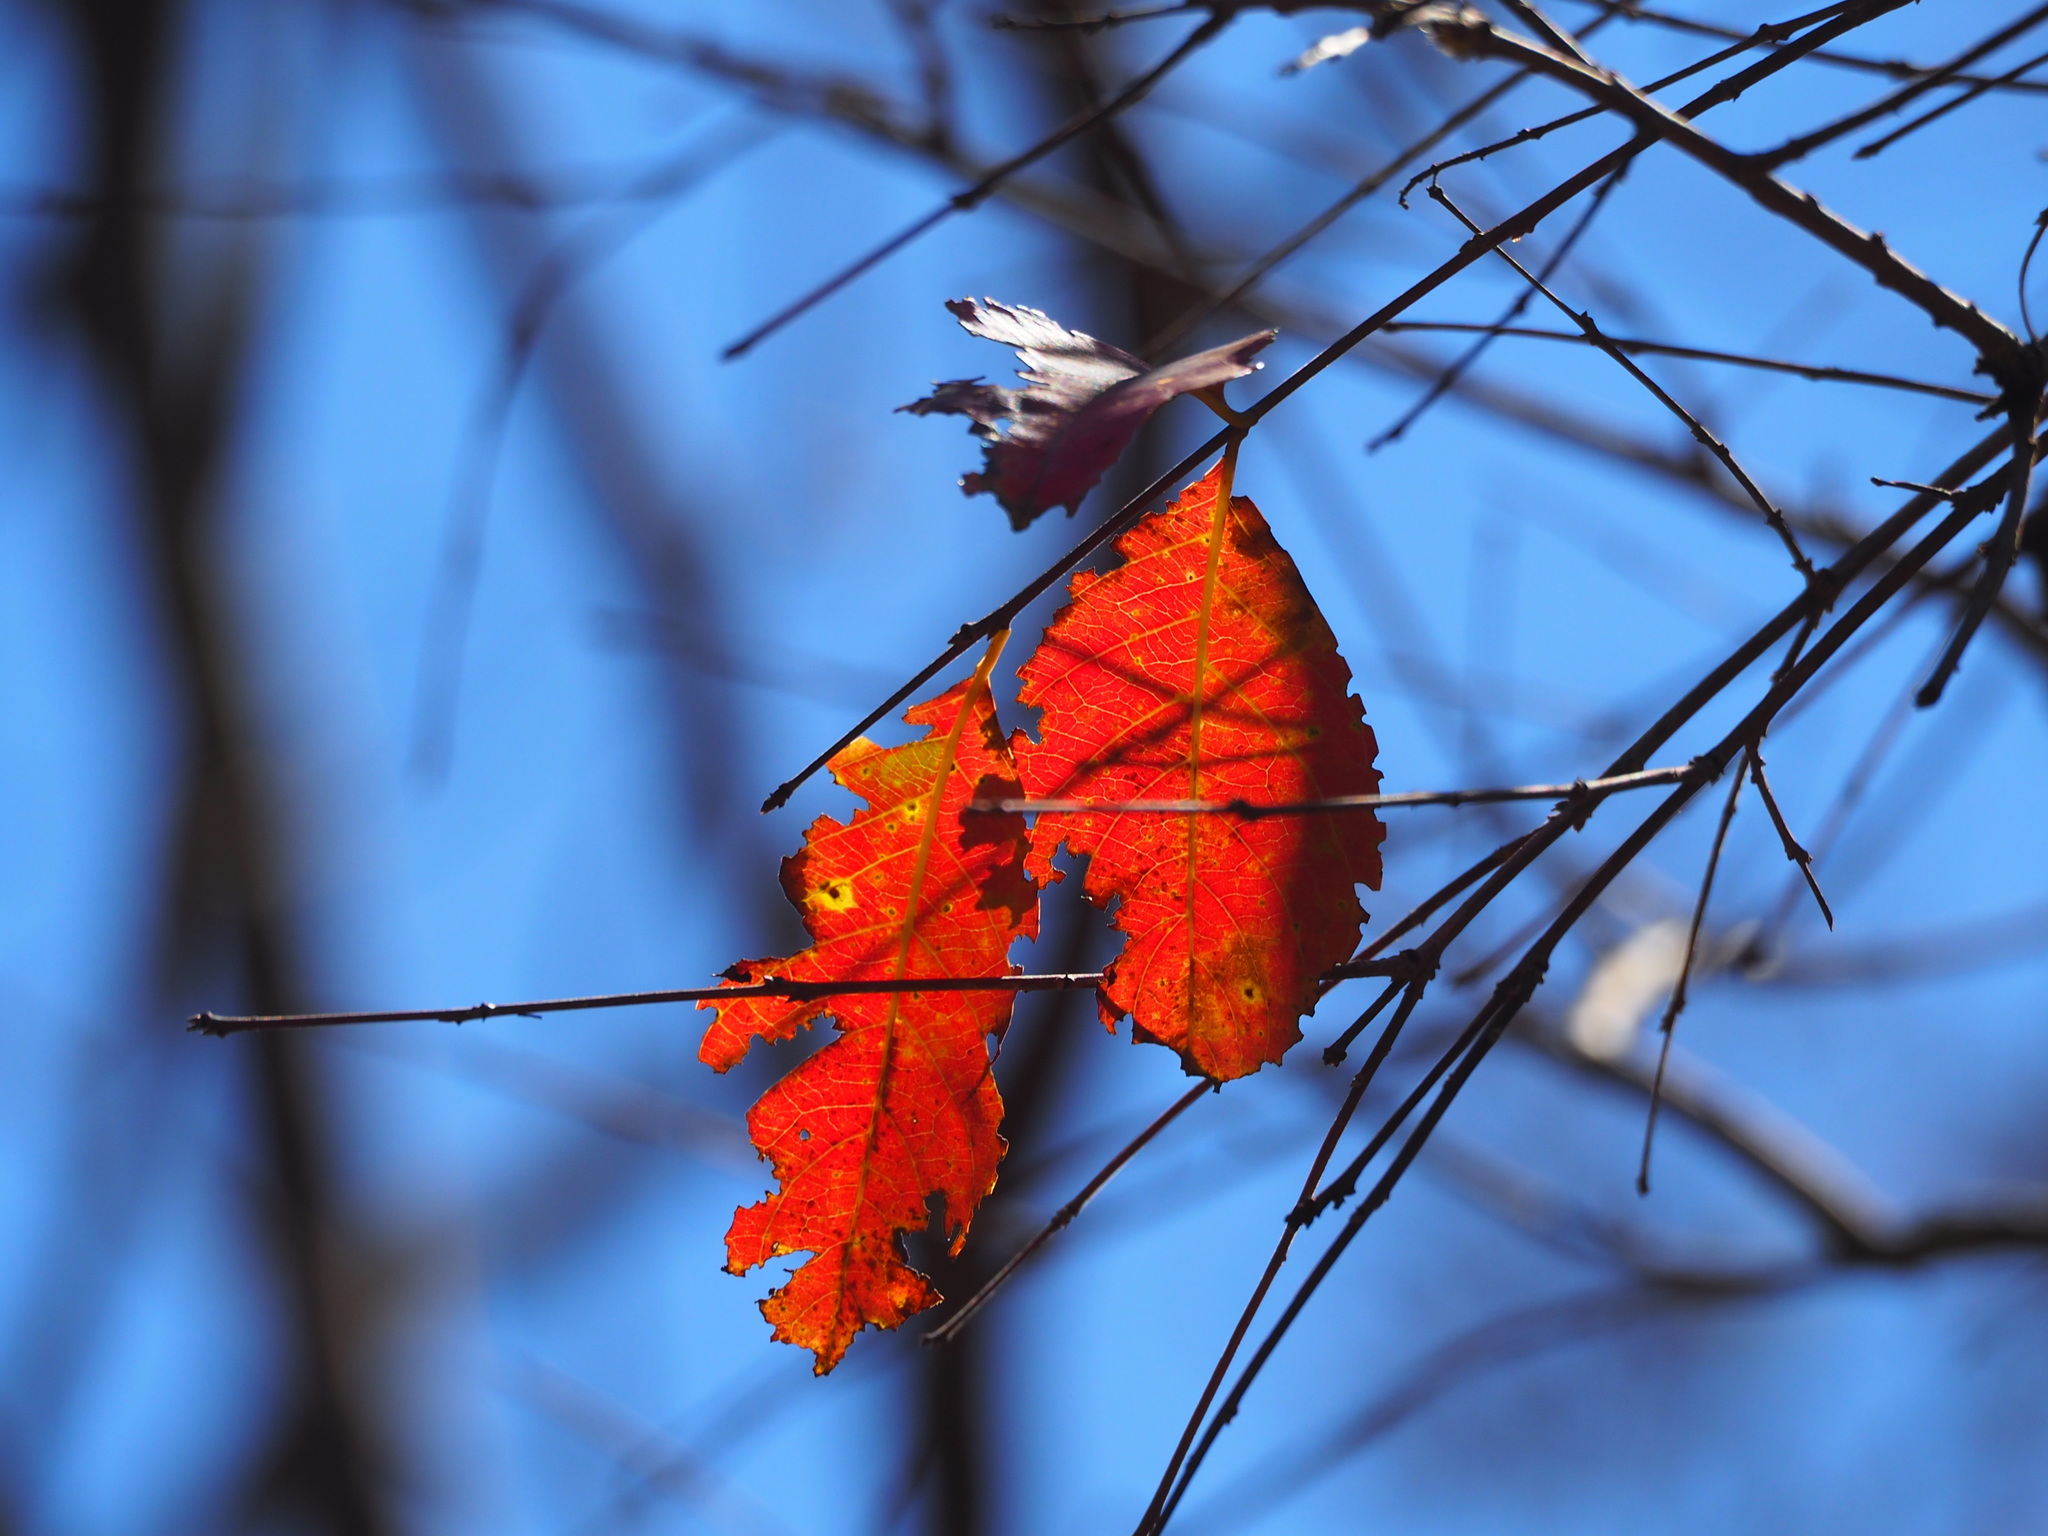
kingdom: Plantae
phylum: Tracheophyta
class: Magnoliopsida
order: Myrtales
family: Lythraceae
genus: Lagerstroemia
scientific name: Lagerstroemia subcostata
